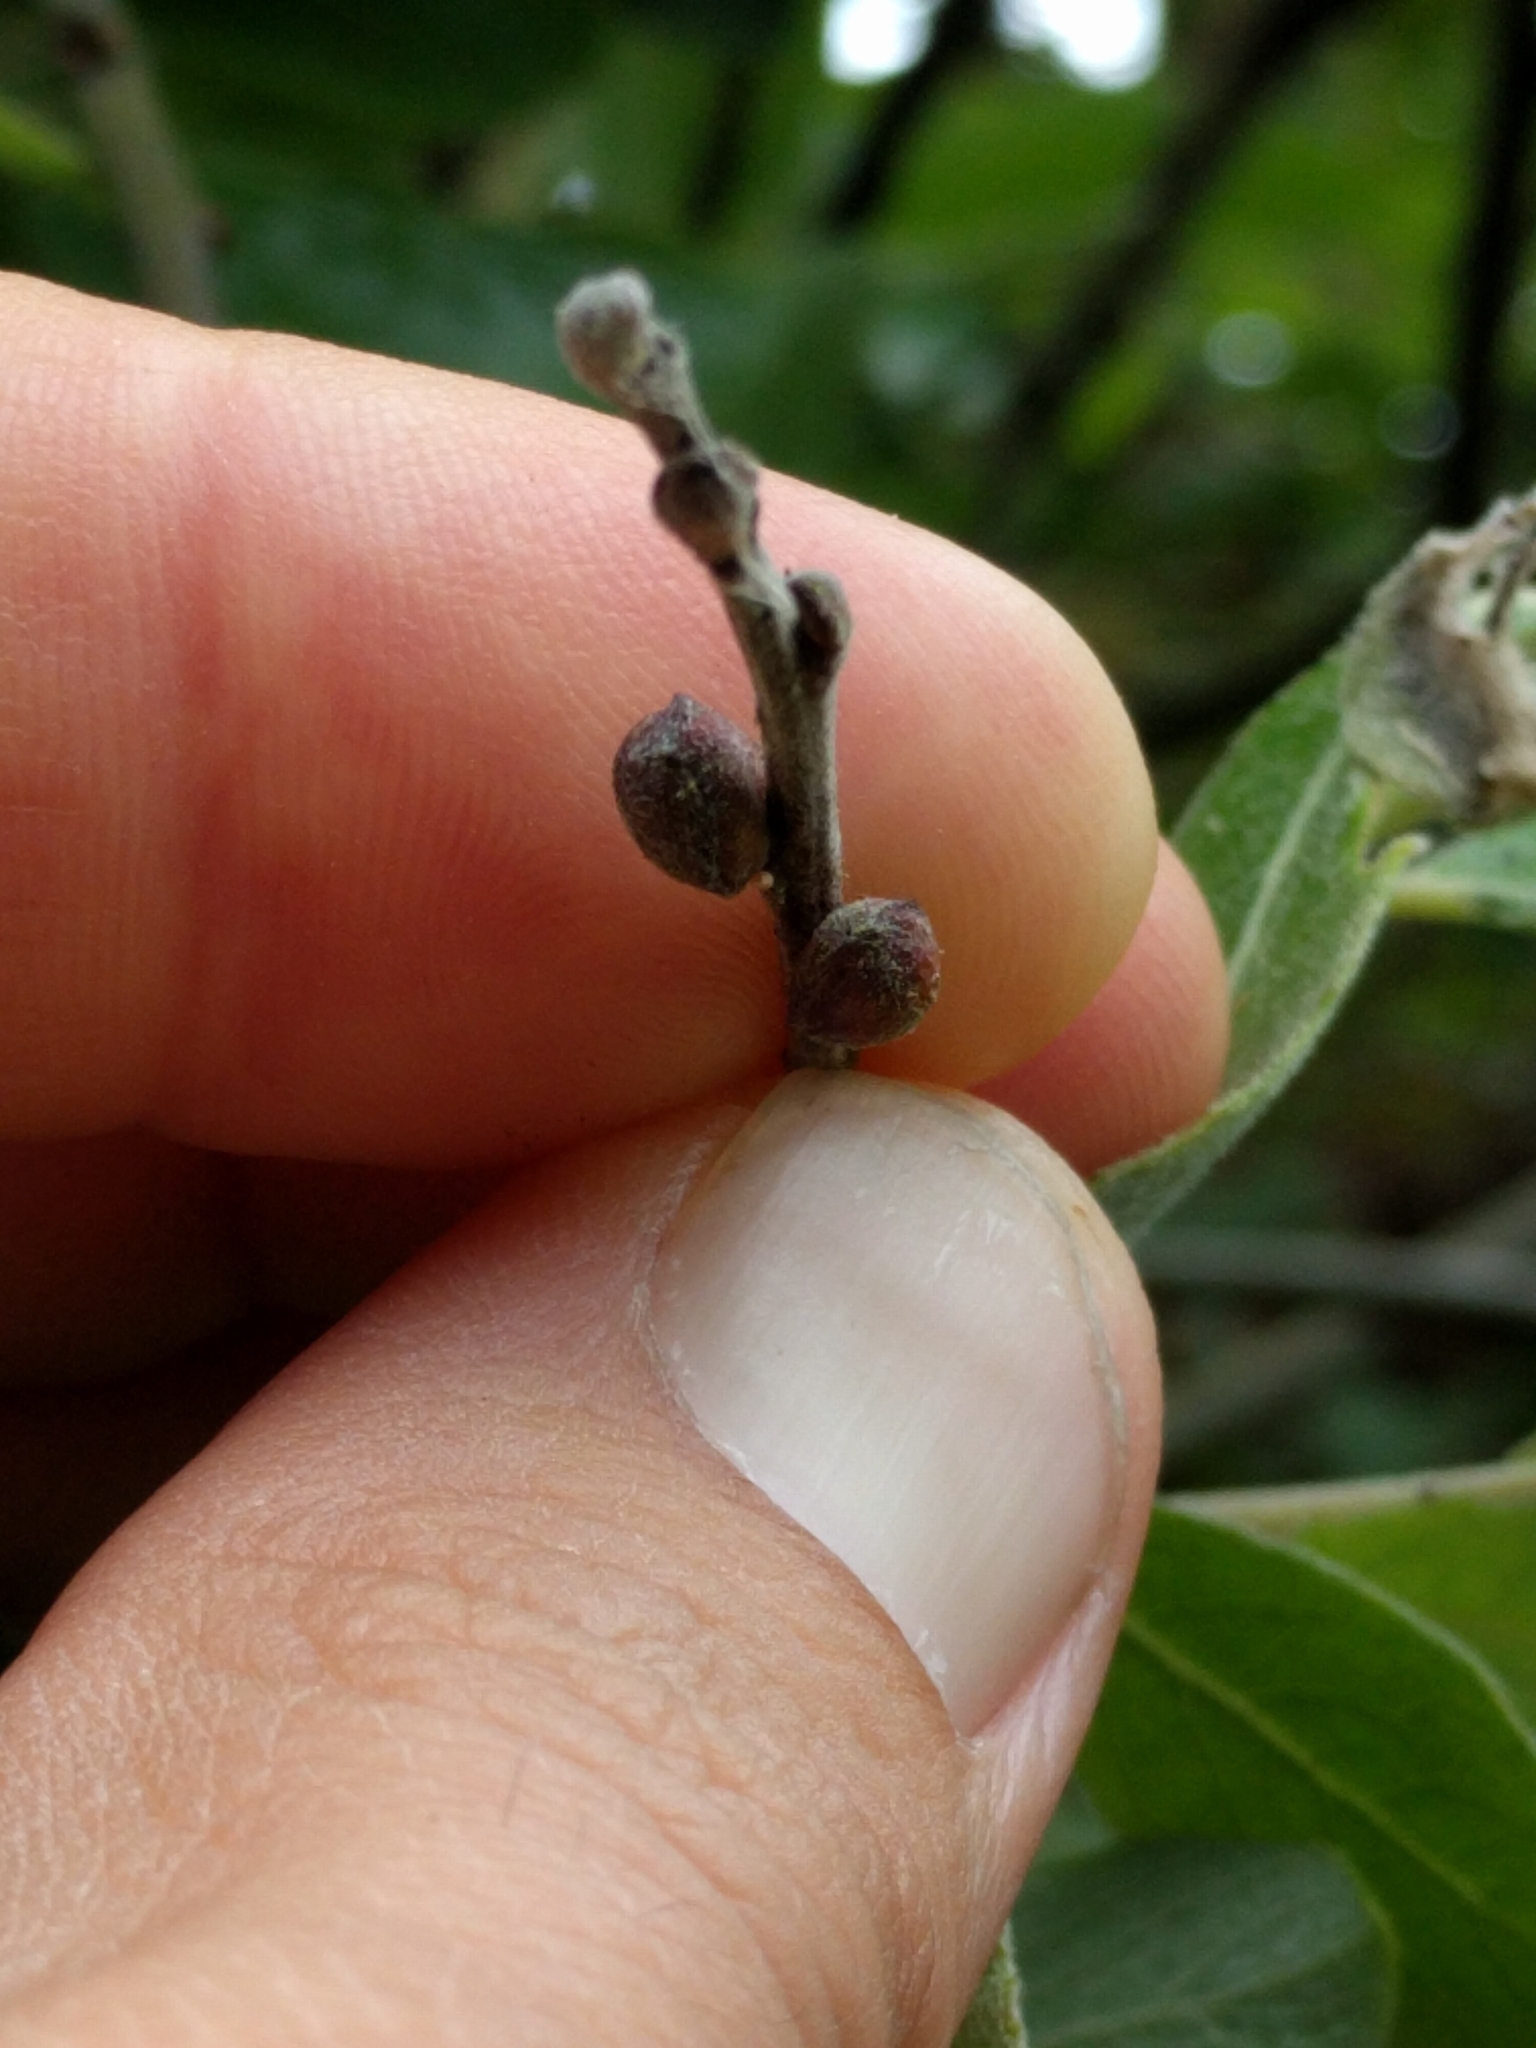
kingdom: Plantae
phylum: Tracheophyta
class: Magnoliopsida
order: Malpighiales
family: Salicaceae
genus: Salix
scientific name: Salix lasiolepis
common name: Arroyo willow
